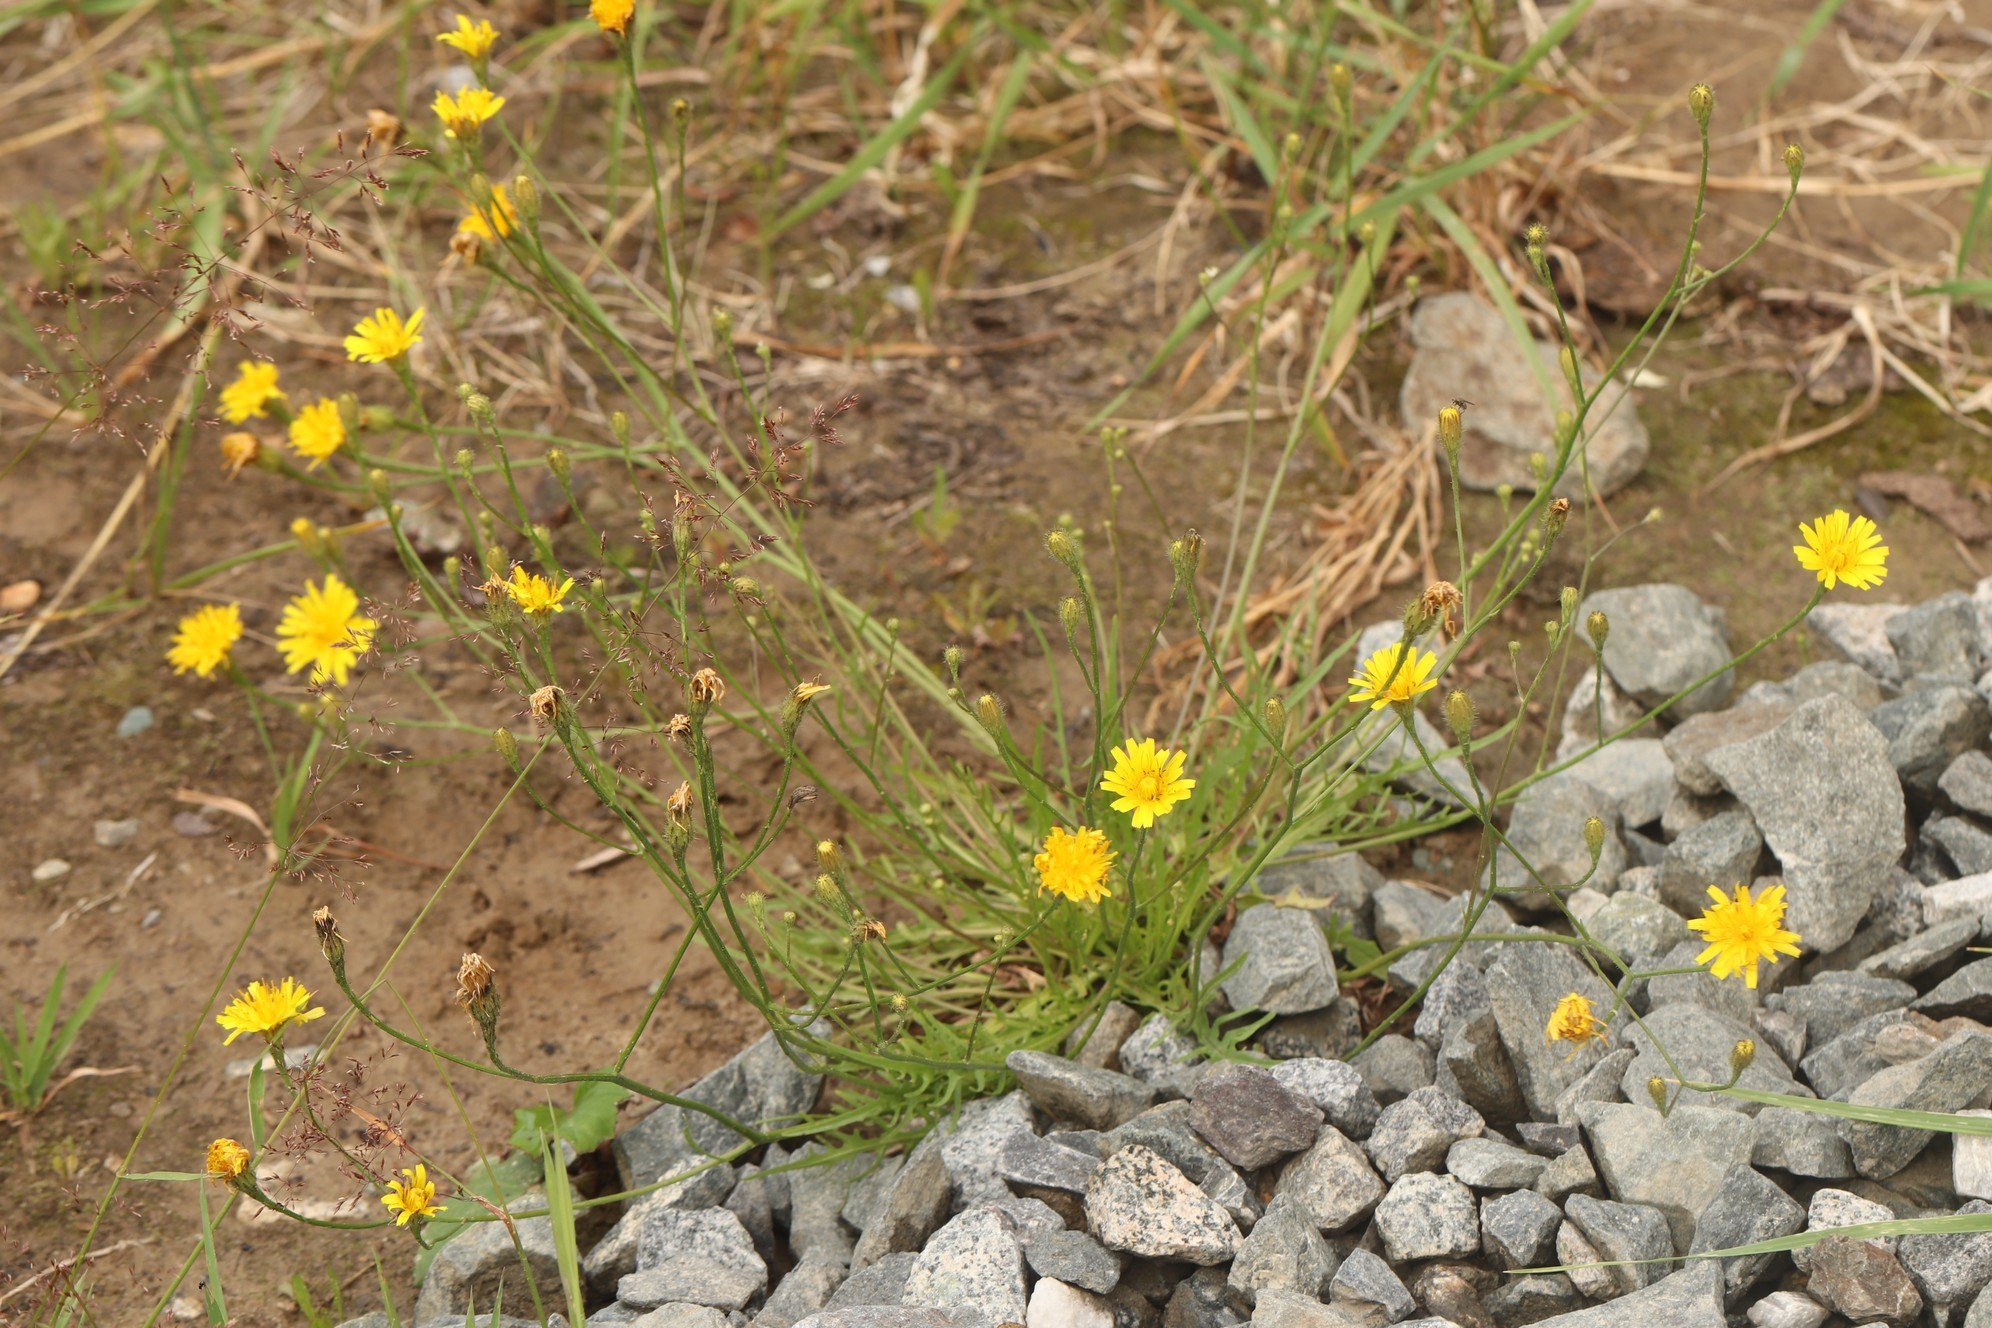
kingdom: Plantae
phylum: Tracheophyta
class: Magnoliopsida
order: Asterales
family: Asteraceae
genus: Scorzoneroides
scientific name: Scorzoneroides autumnalis
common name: Autumn hawkbit
